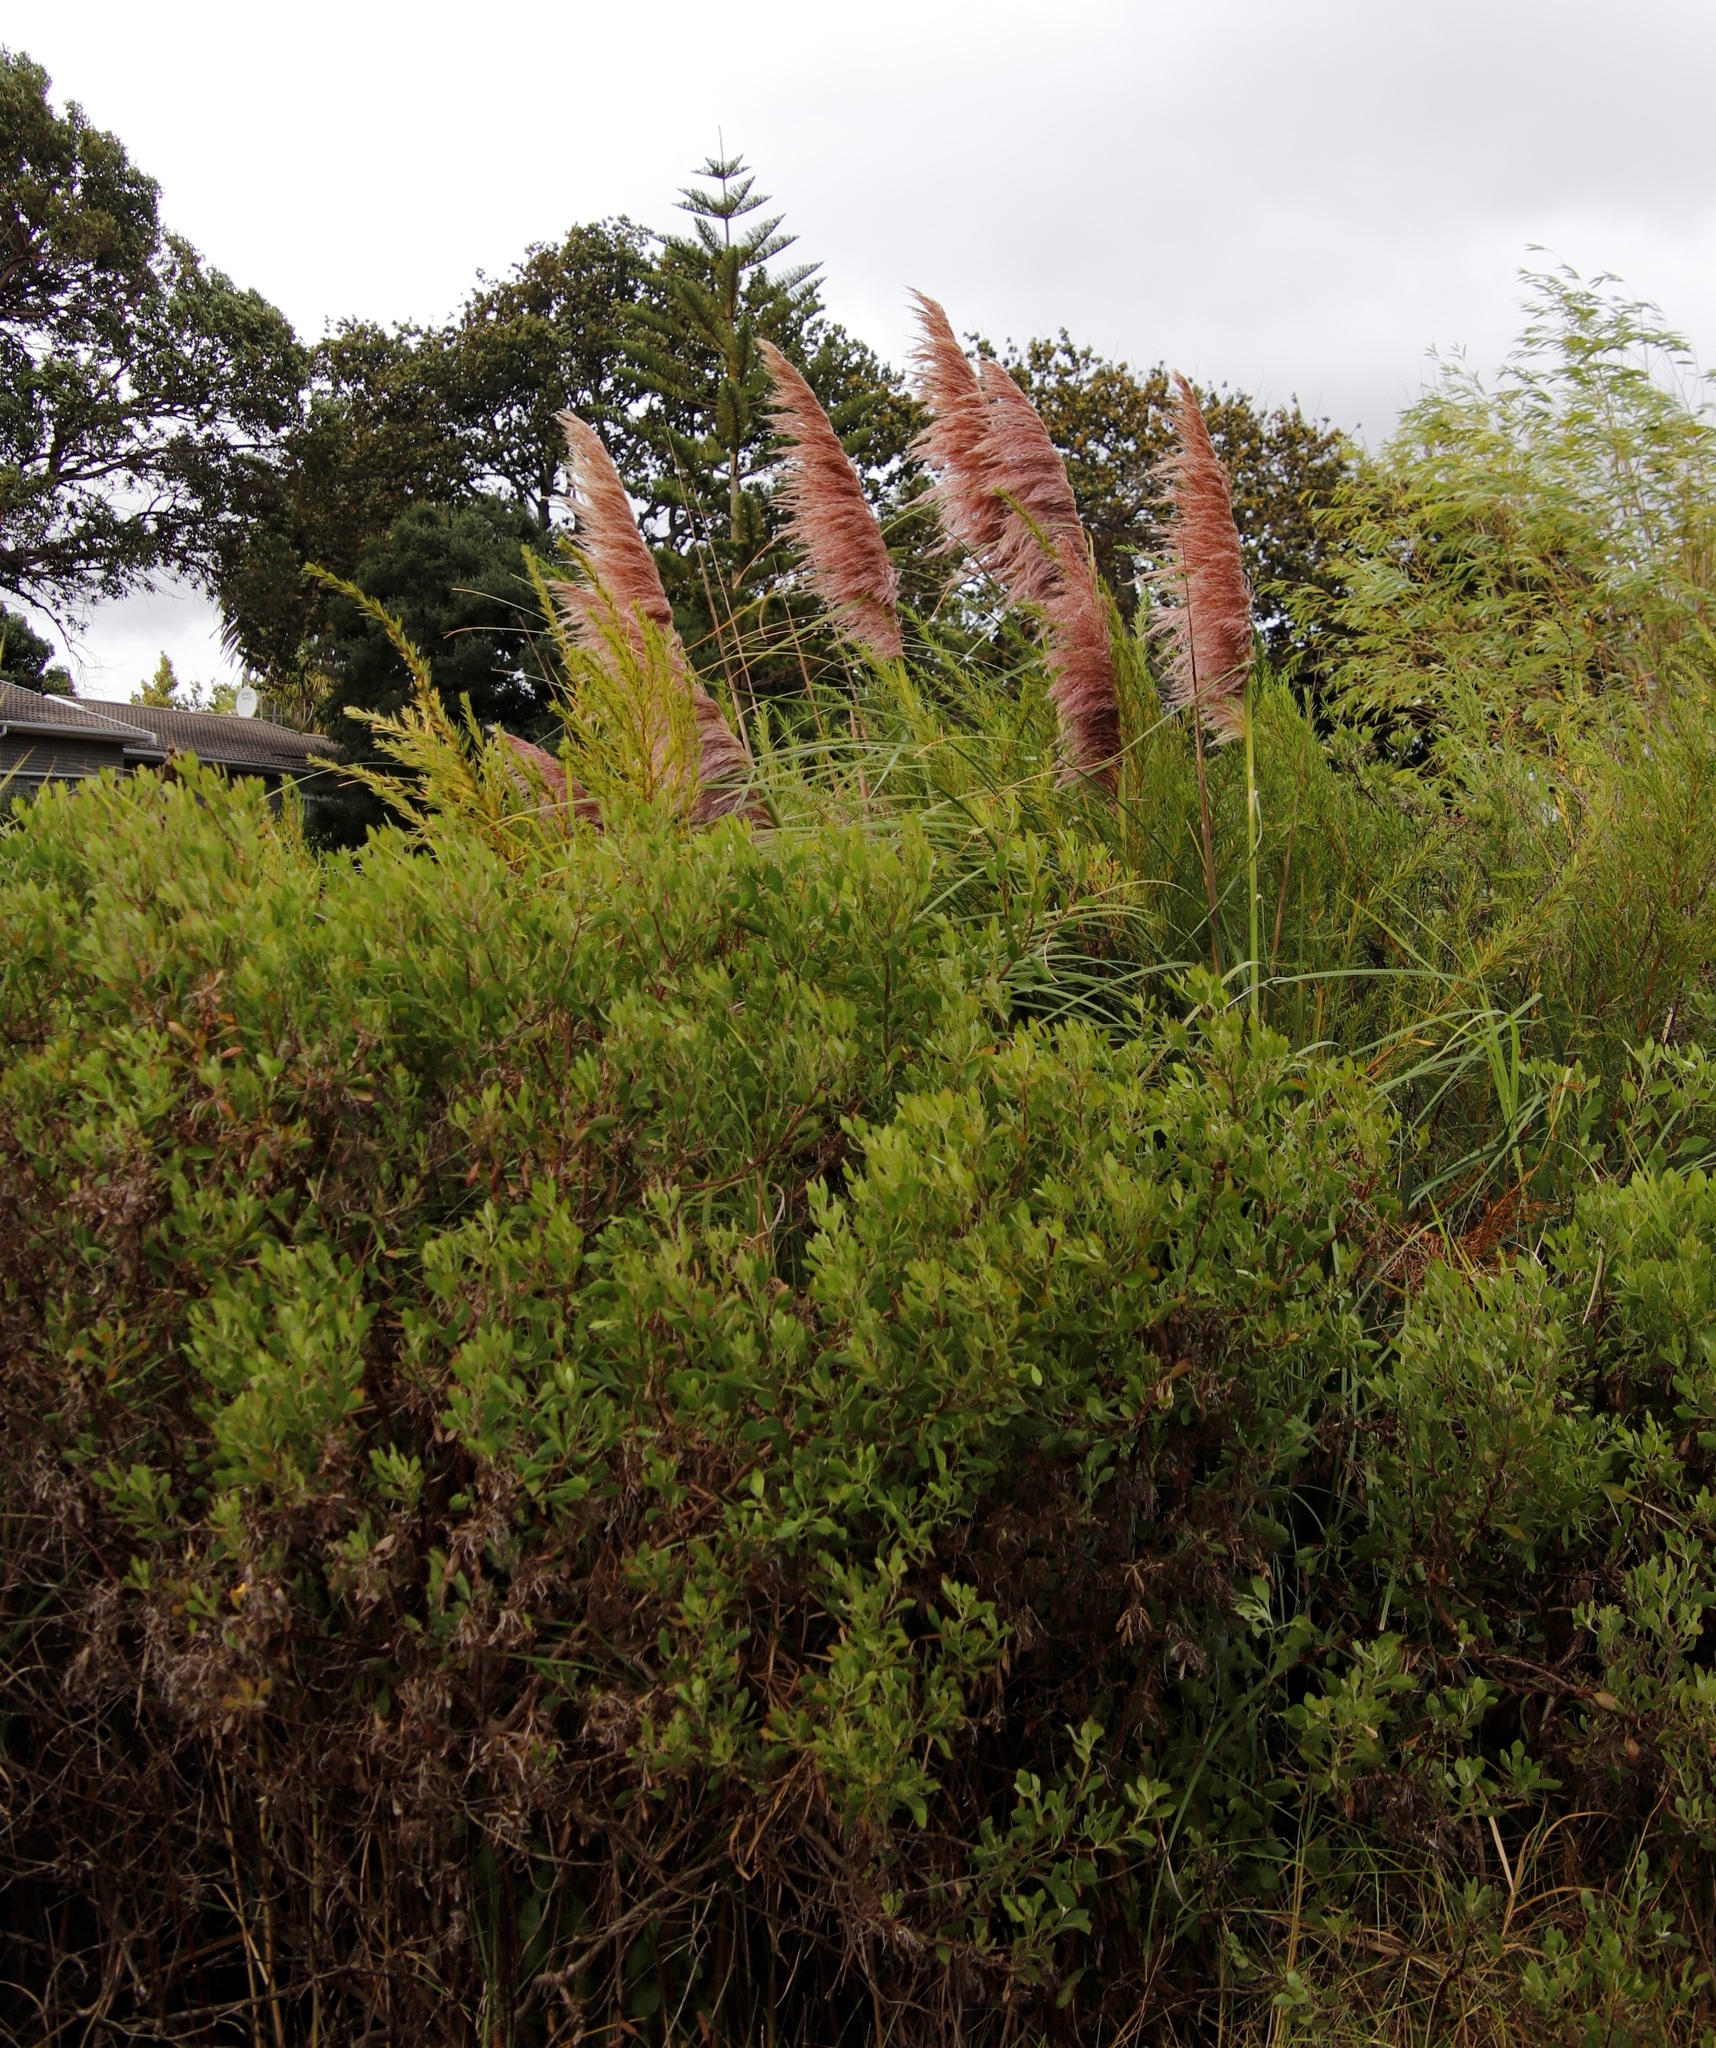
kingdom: Plantae
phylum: Tracheophyta
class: Liliopsida
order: Poales
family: Poaceae
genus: Cortaderia
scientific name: Cortaderia selloana
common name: Uruguayan pampas grass
